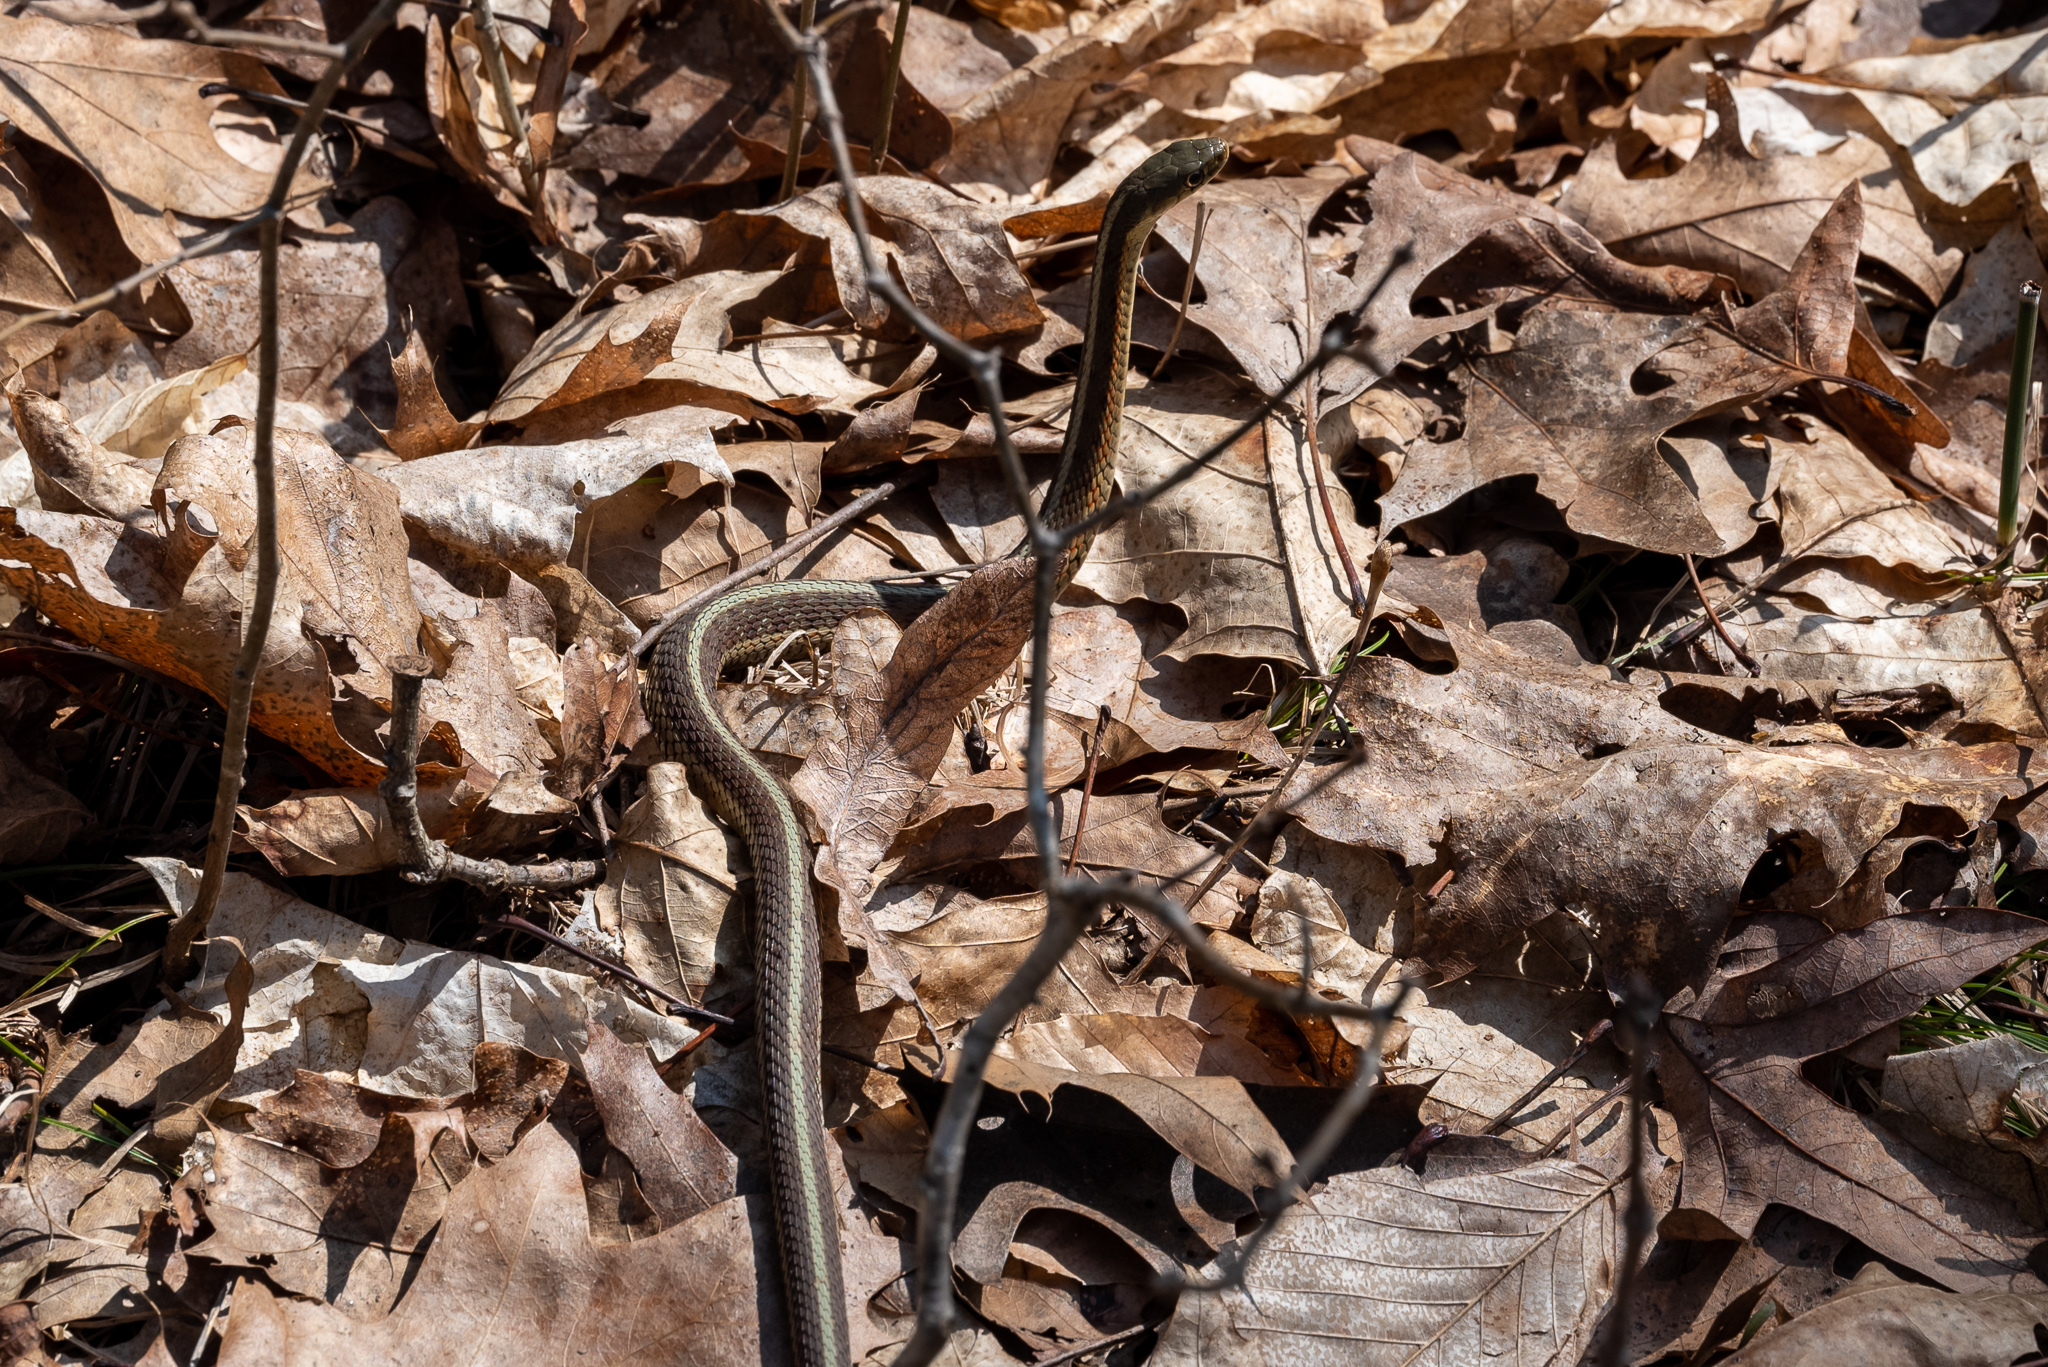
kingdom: Animalia
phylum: Chordata
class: Squamata
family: Colubridae
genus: Thamnophis
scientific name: Thamnophis sirtalis
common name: Common garter snake
